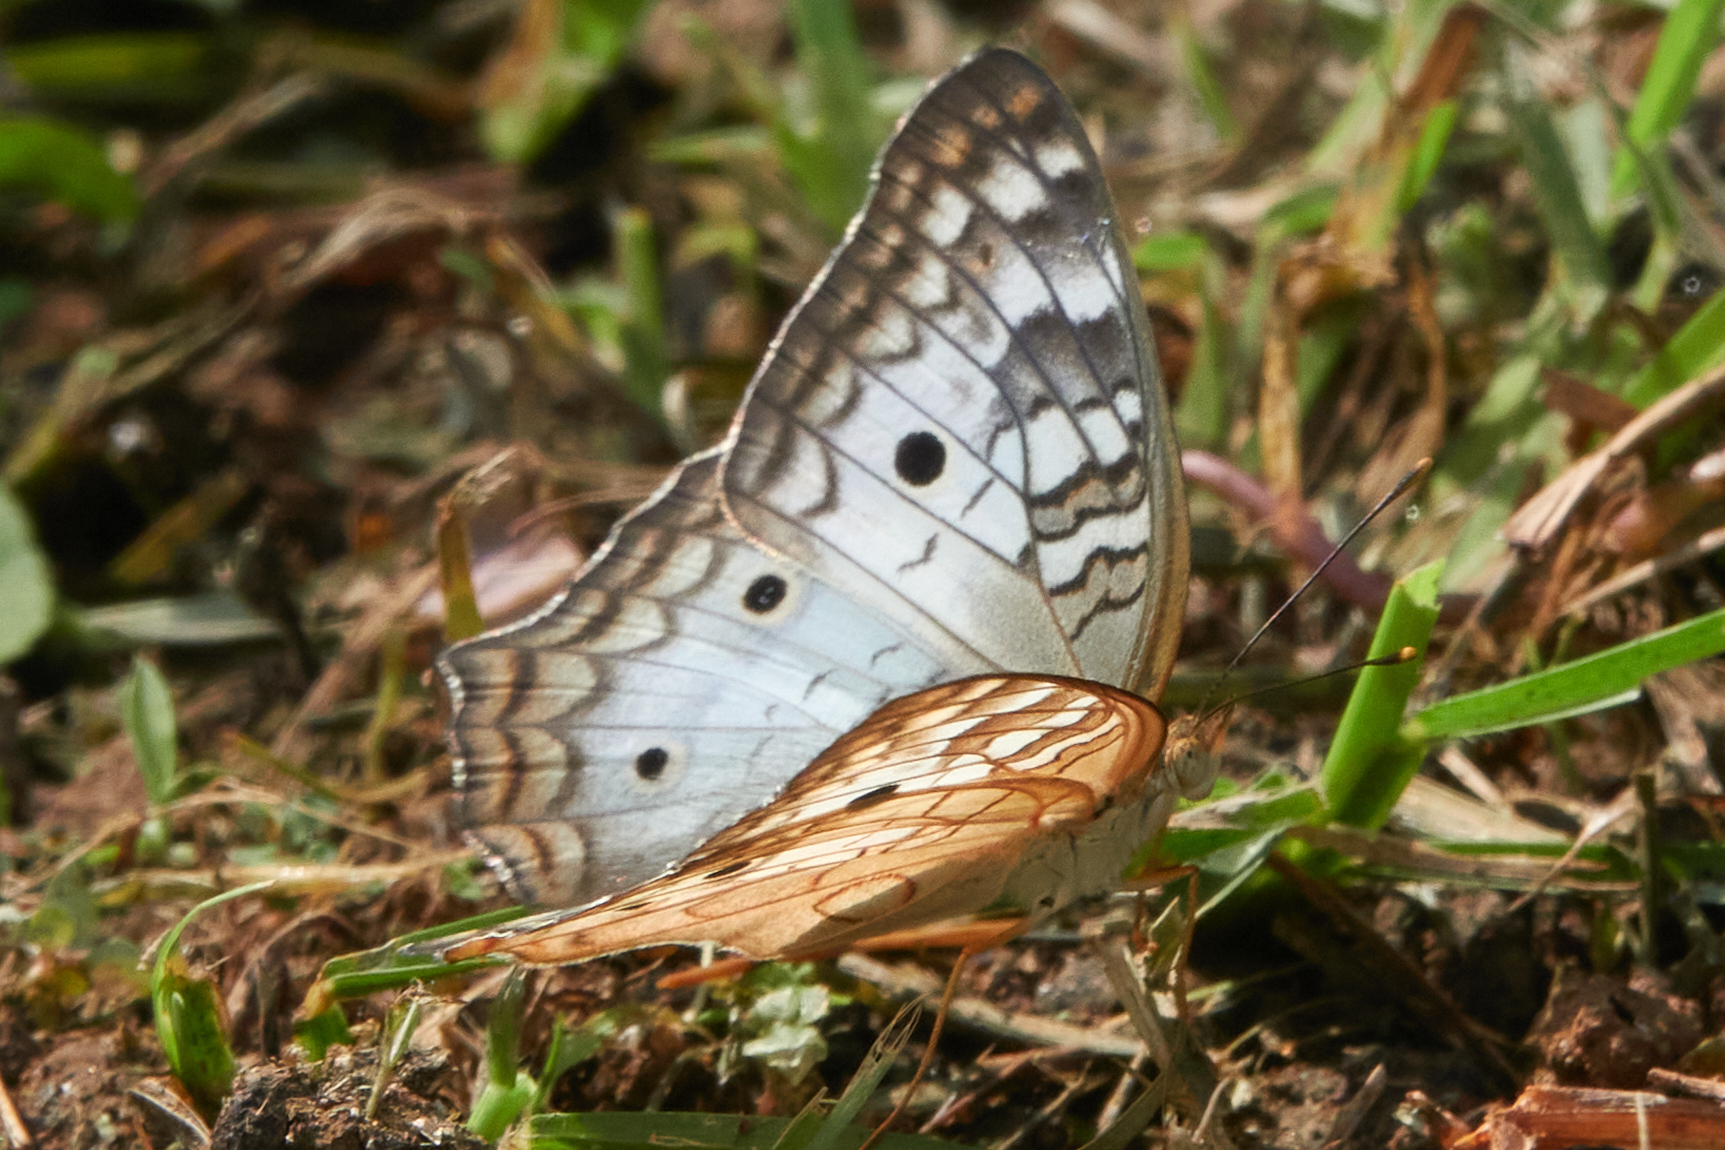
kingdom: Animalia
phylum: Arthropoda
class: Insecta
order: Lepidoptera
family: Nymphalidae
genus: Anartia
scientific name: Anartia jatrophae
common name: White peacock
